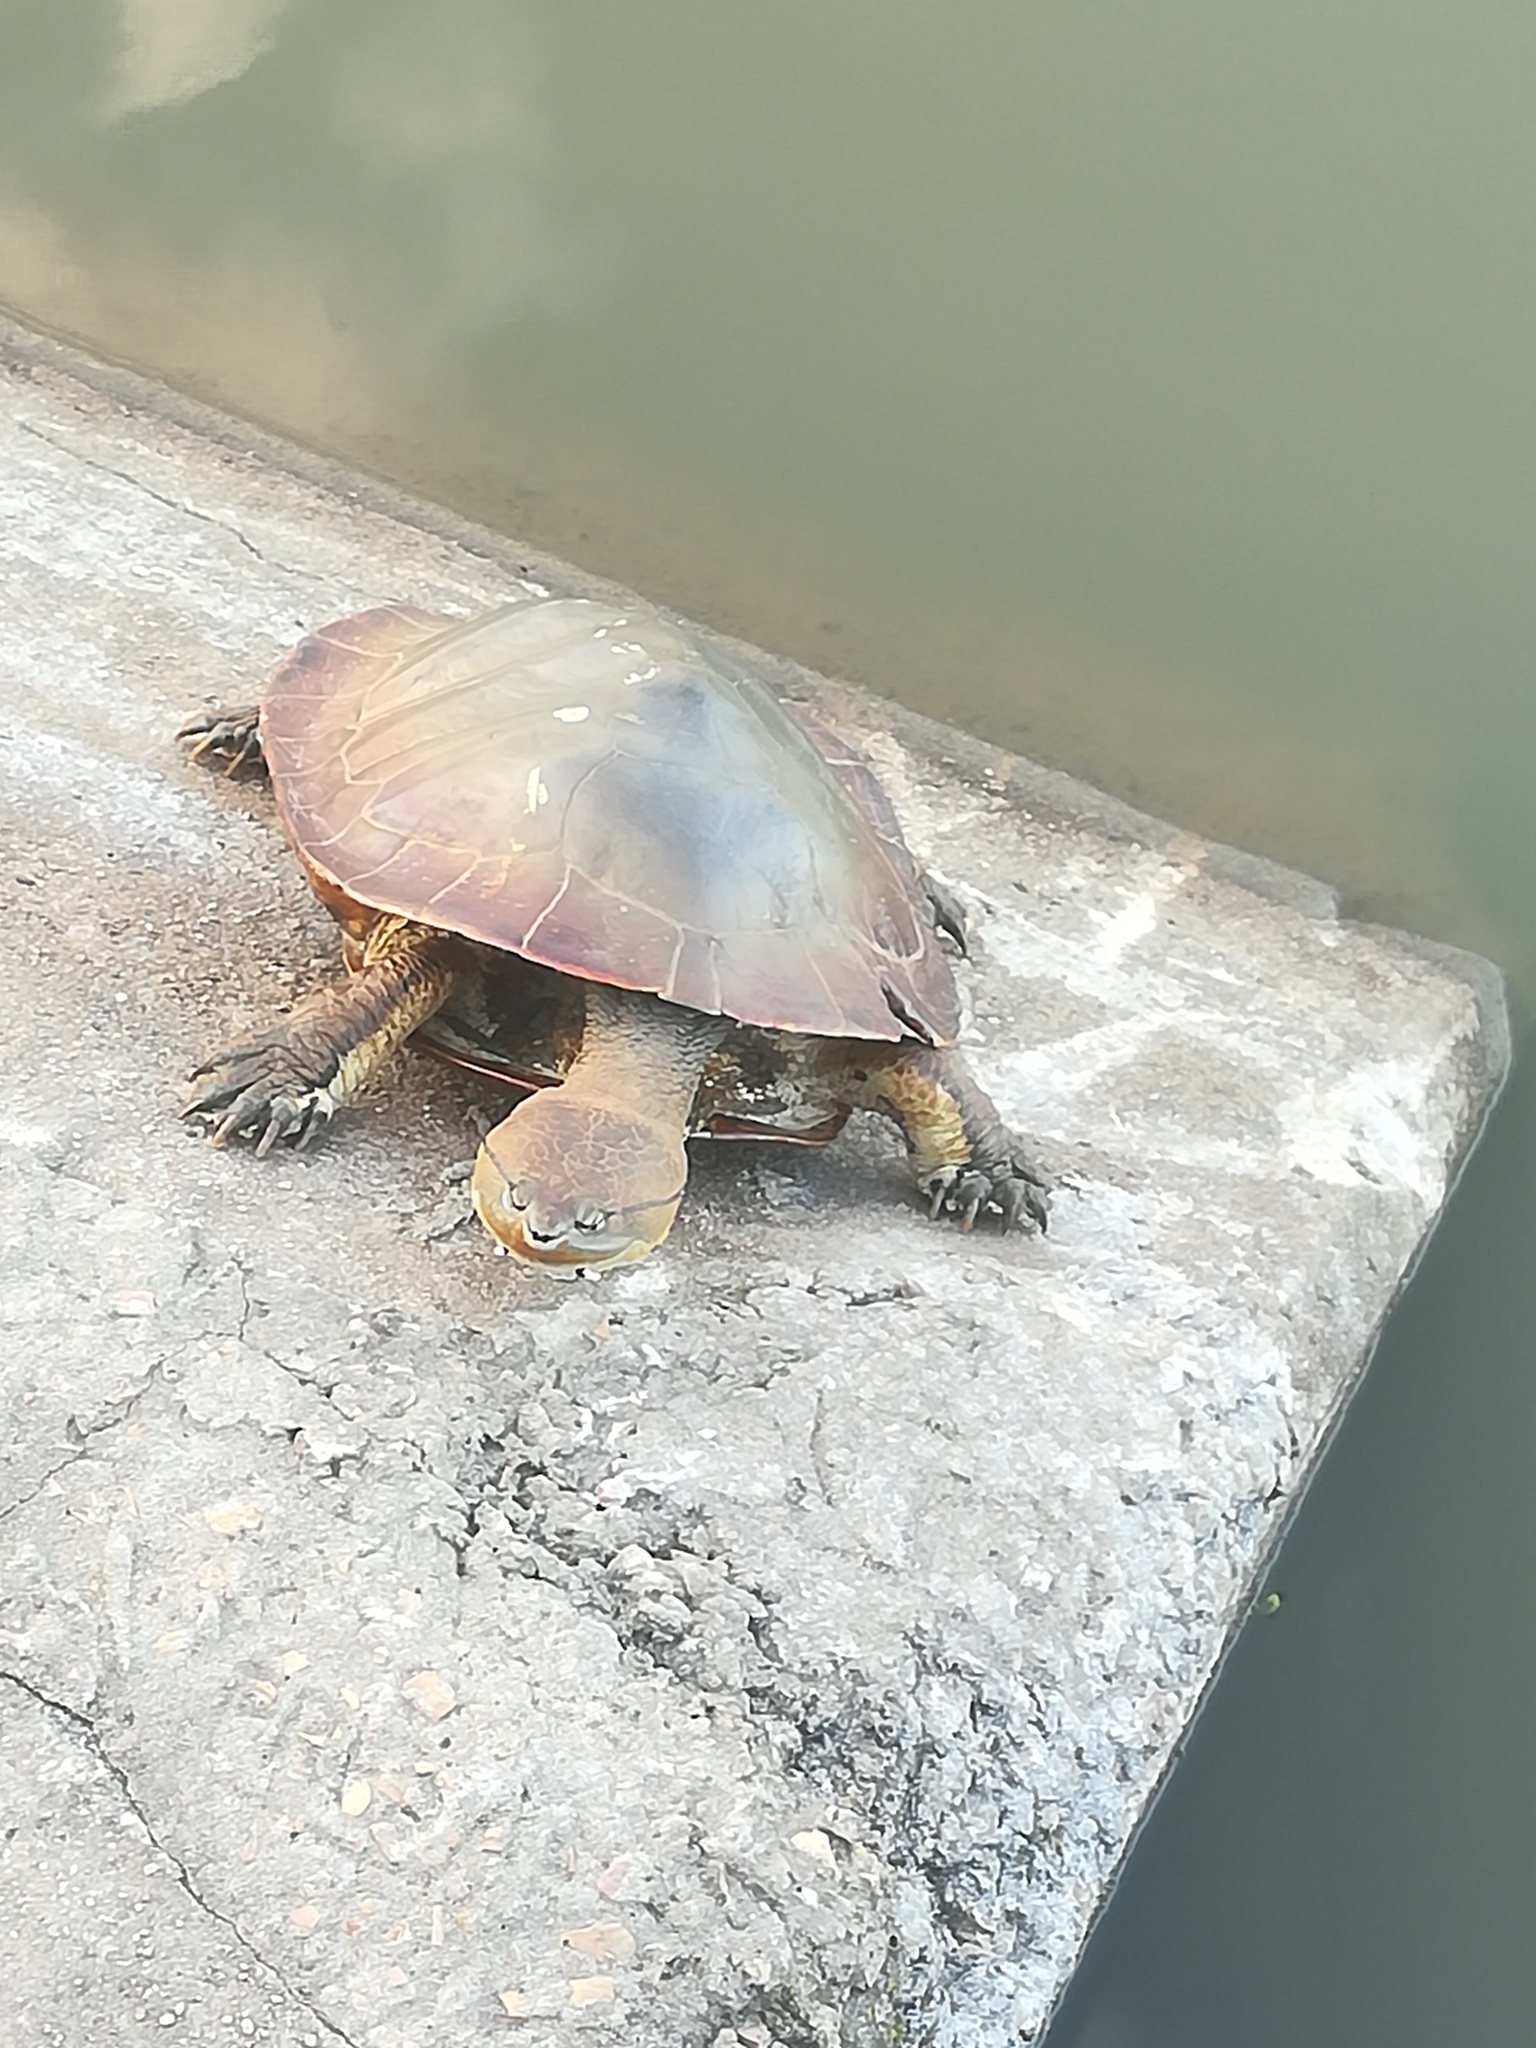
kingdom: Animalia
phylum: Chordata
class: Testudines
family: Chelidae
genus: Phrynops
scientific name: Phrynops hilarii
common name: Side-necked turtle of saint hillaire
